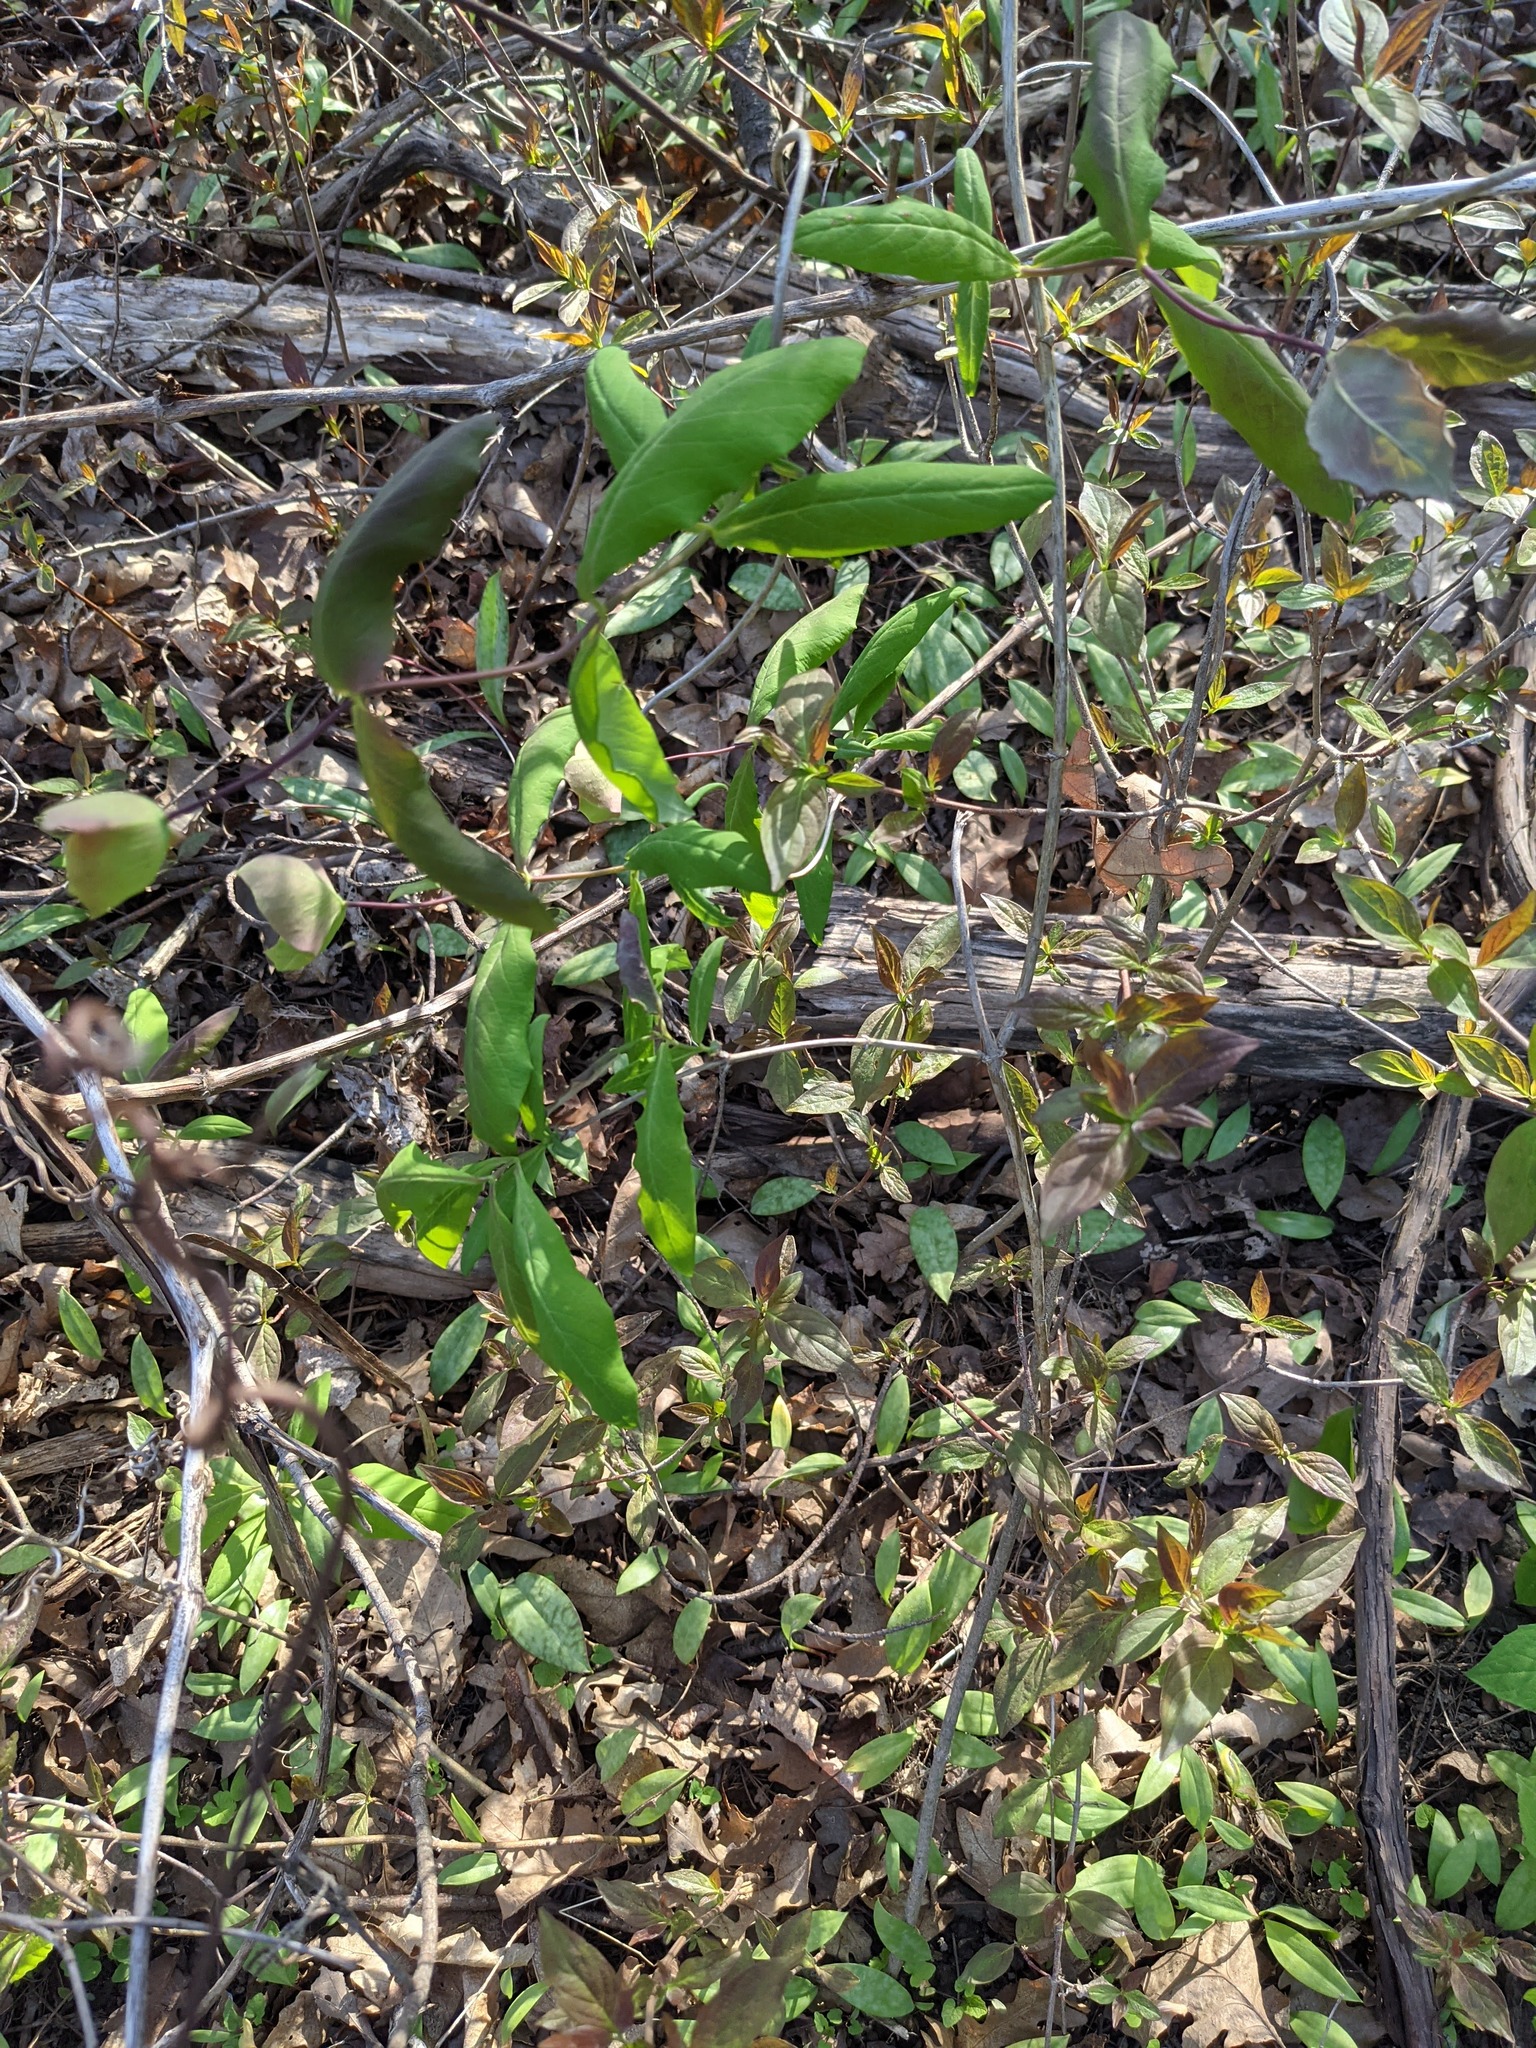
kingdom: Plantae
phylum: Tracheophyta
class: Magnoliopsida
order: Dipsacales
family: Caprifoliaceae
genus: Lonicera
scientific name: Lonicera dioica
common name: Limber honeysuckle
